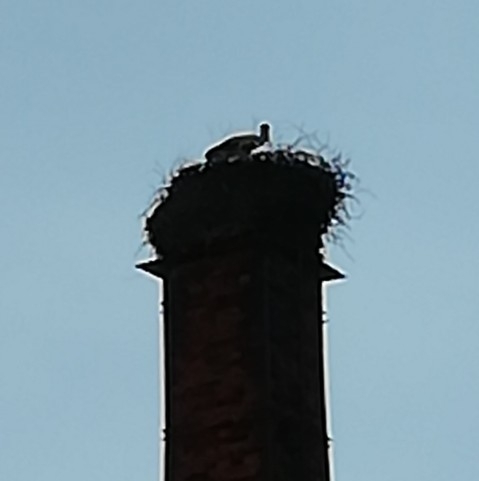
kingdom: Animalia
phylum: Chordata
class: Aves
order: Ciconiiformes
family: Ciconiidae
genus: Ciconia
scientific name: Ciconia ciconia
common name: White stork
